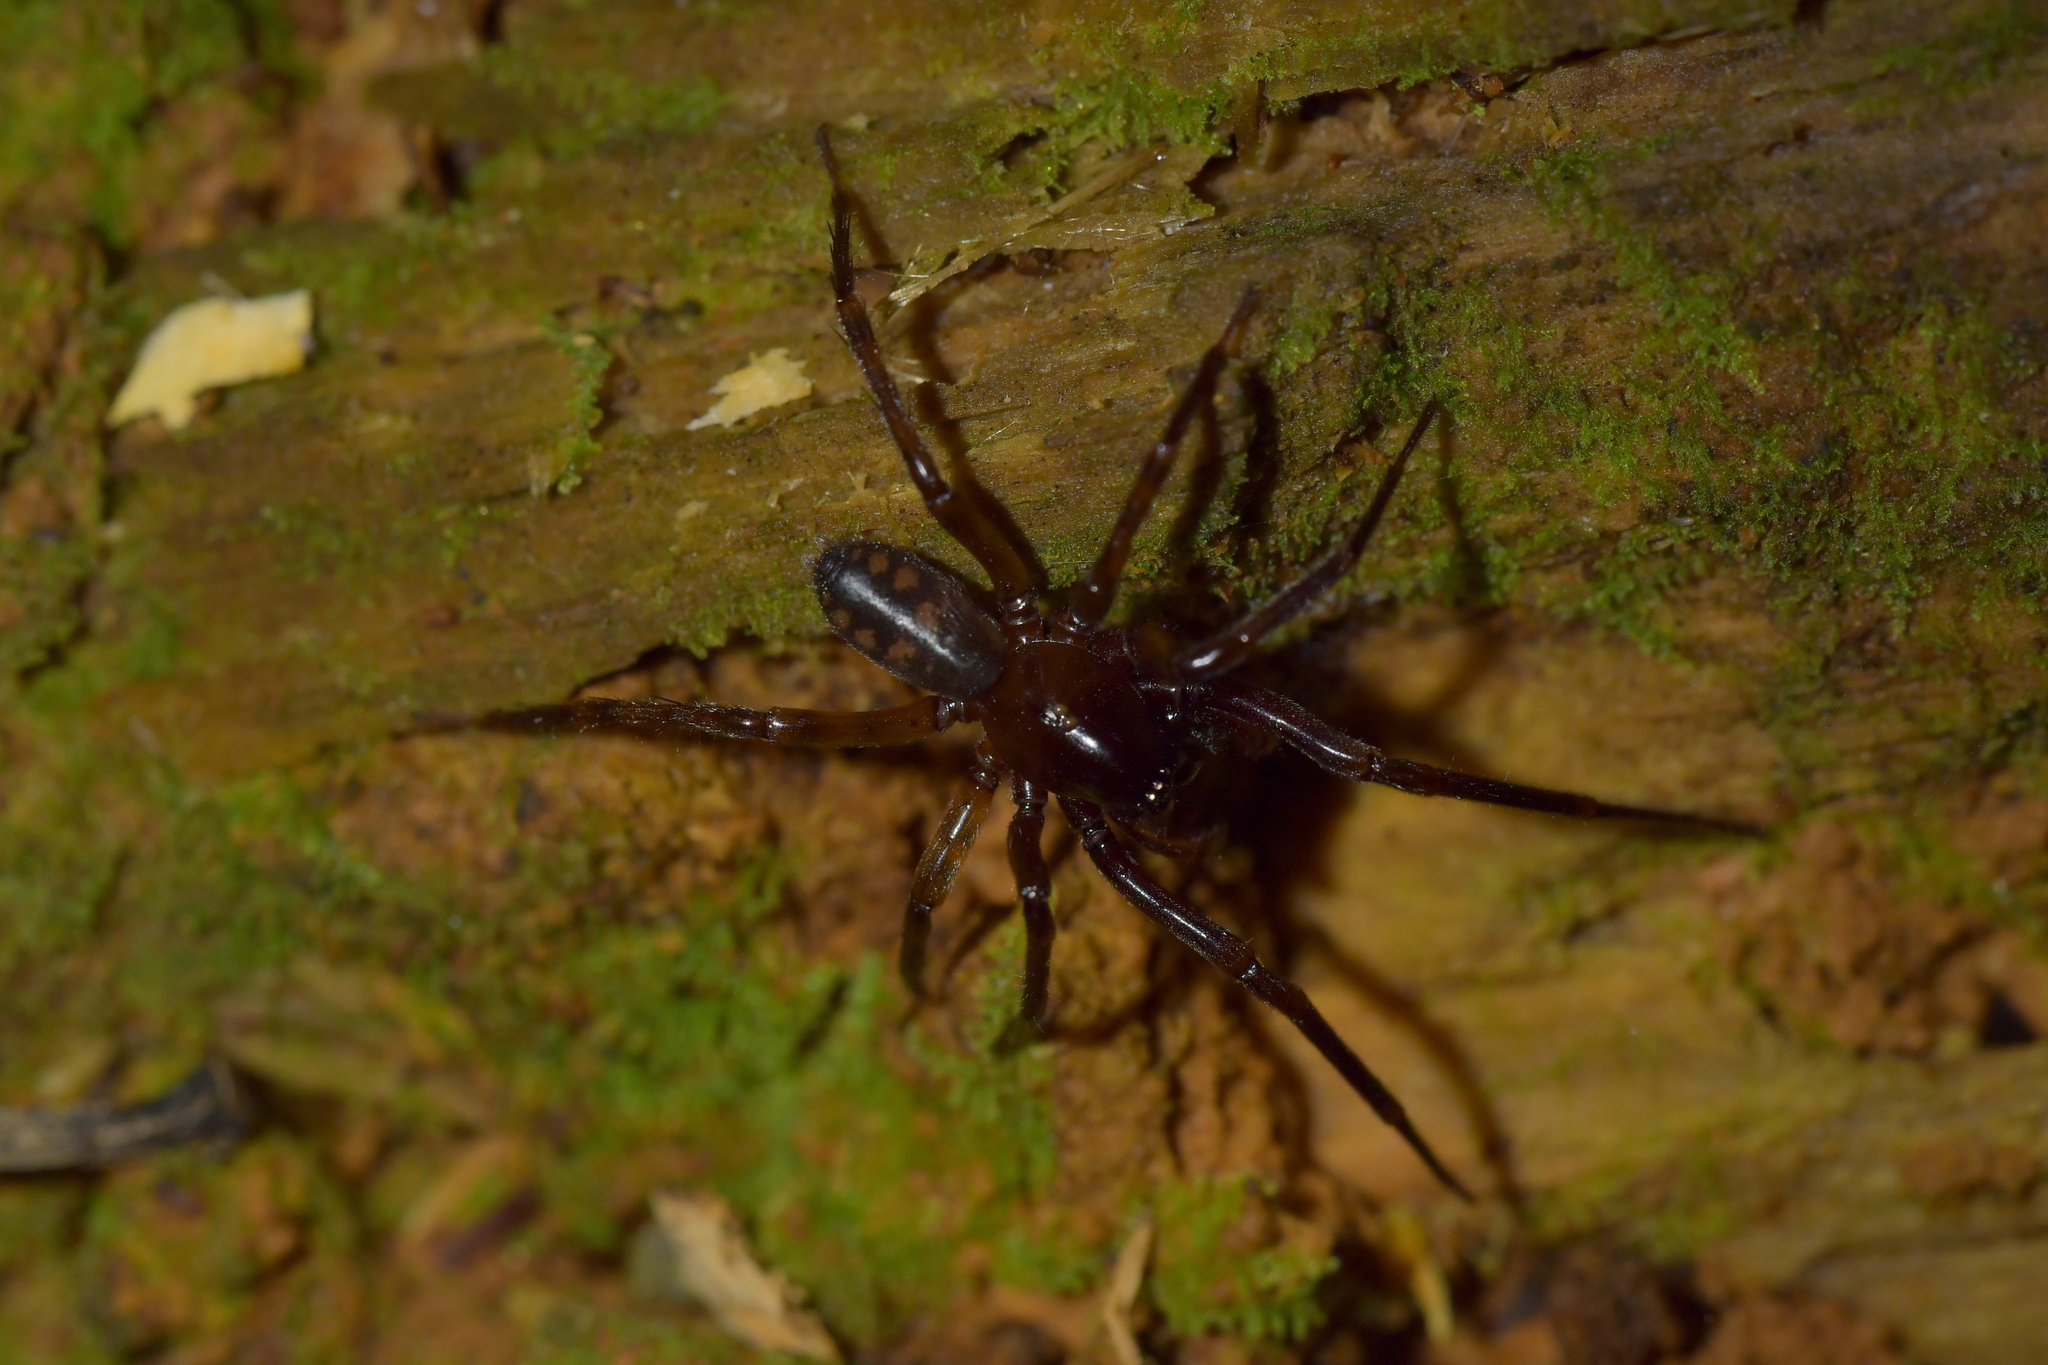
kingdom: Animalia
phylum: Arthropoda
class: Arachnida
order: Araneae
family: Desidae
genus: Amphinecta
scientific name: Amphinecta pila
